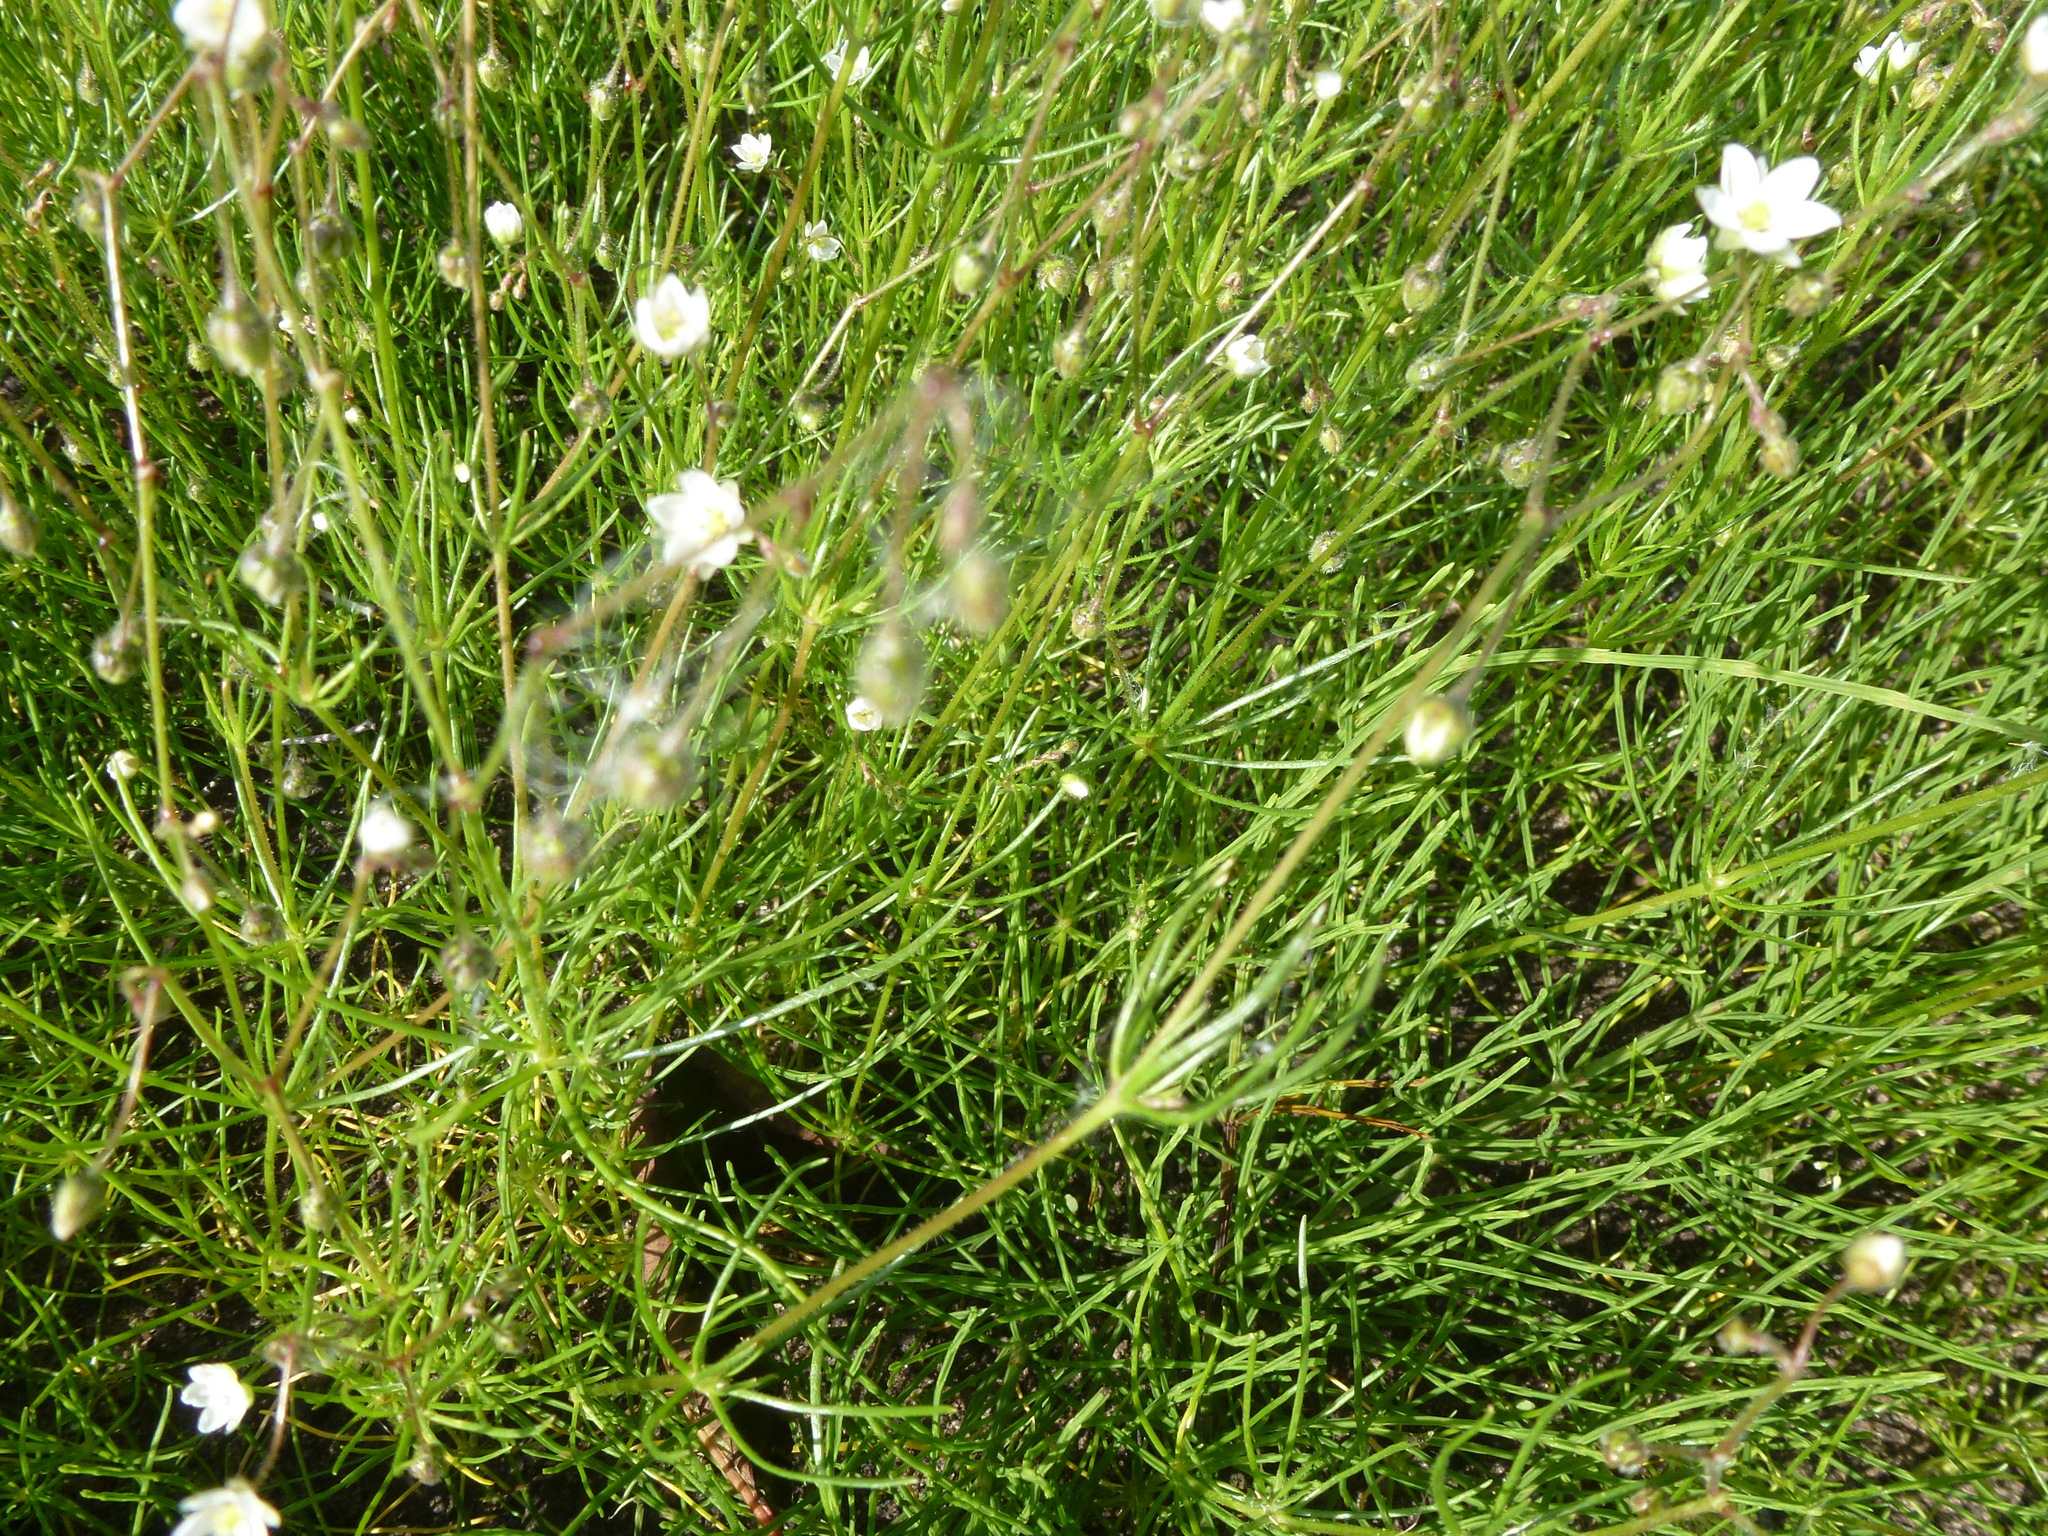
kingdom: Plantae
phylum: Tracheophyta
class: Magnoliopsida
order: Caryophyllales
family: Caryophyllaceae
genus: Spergula
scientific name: Spergula arvensis
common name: Corn spurrey
